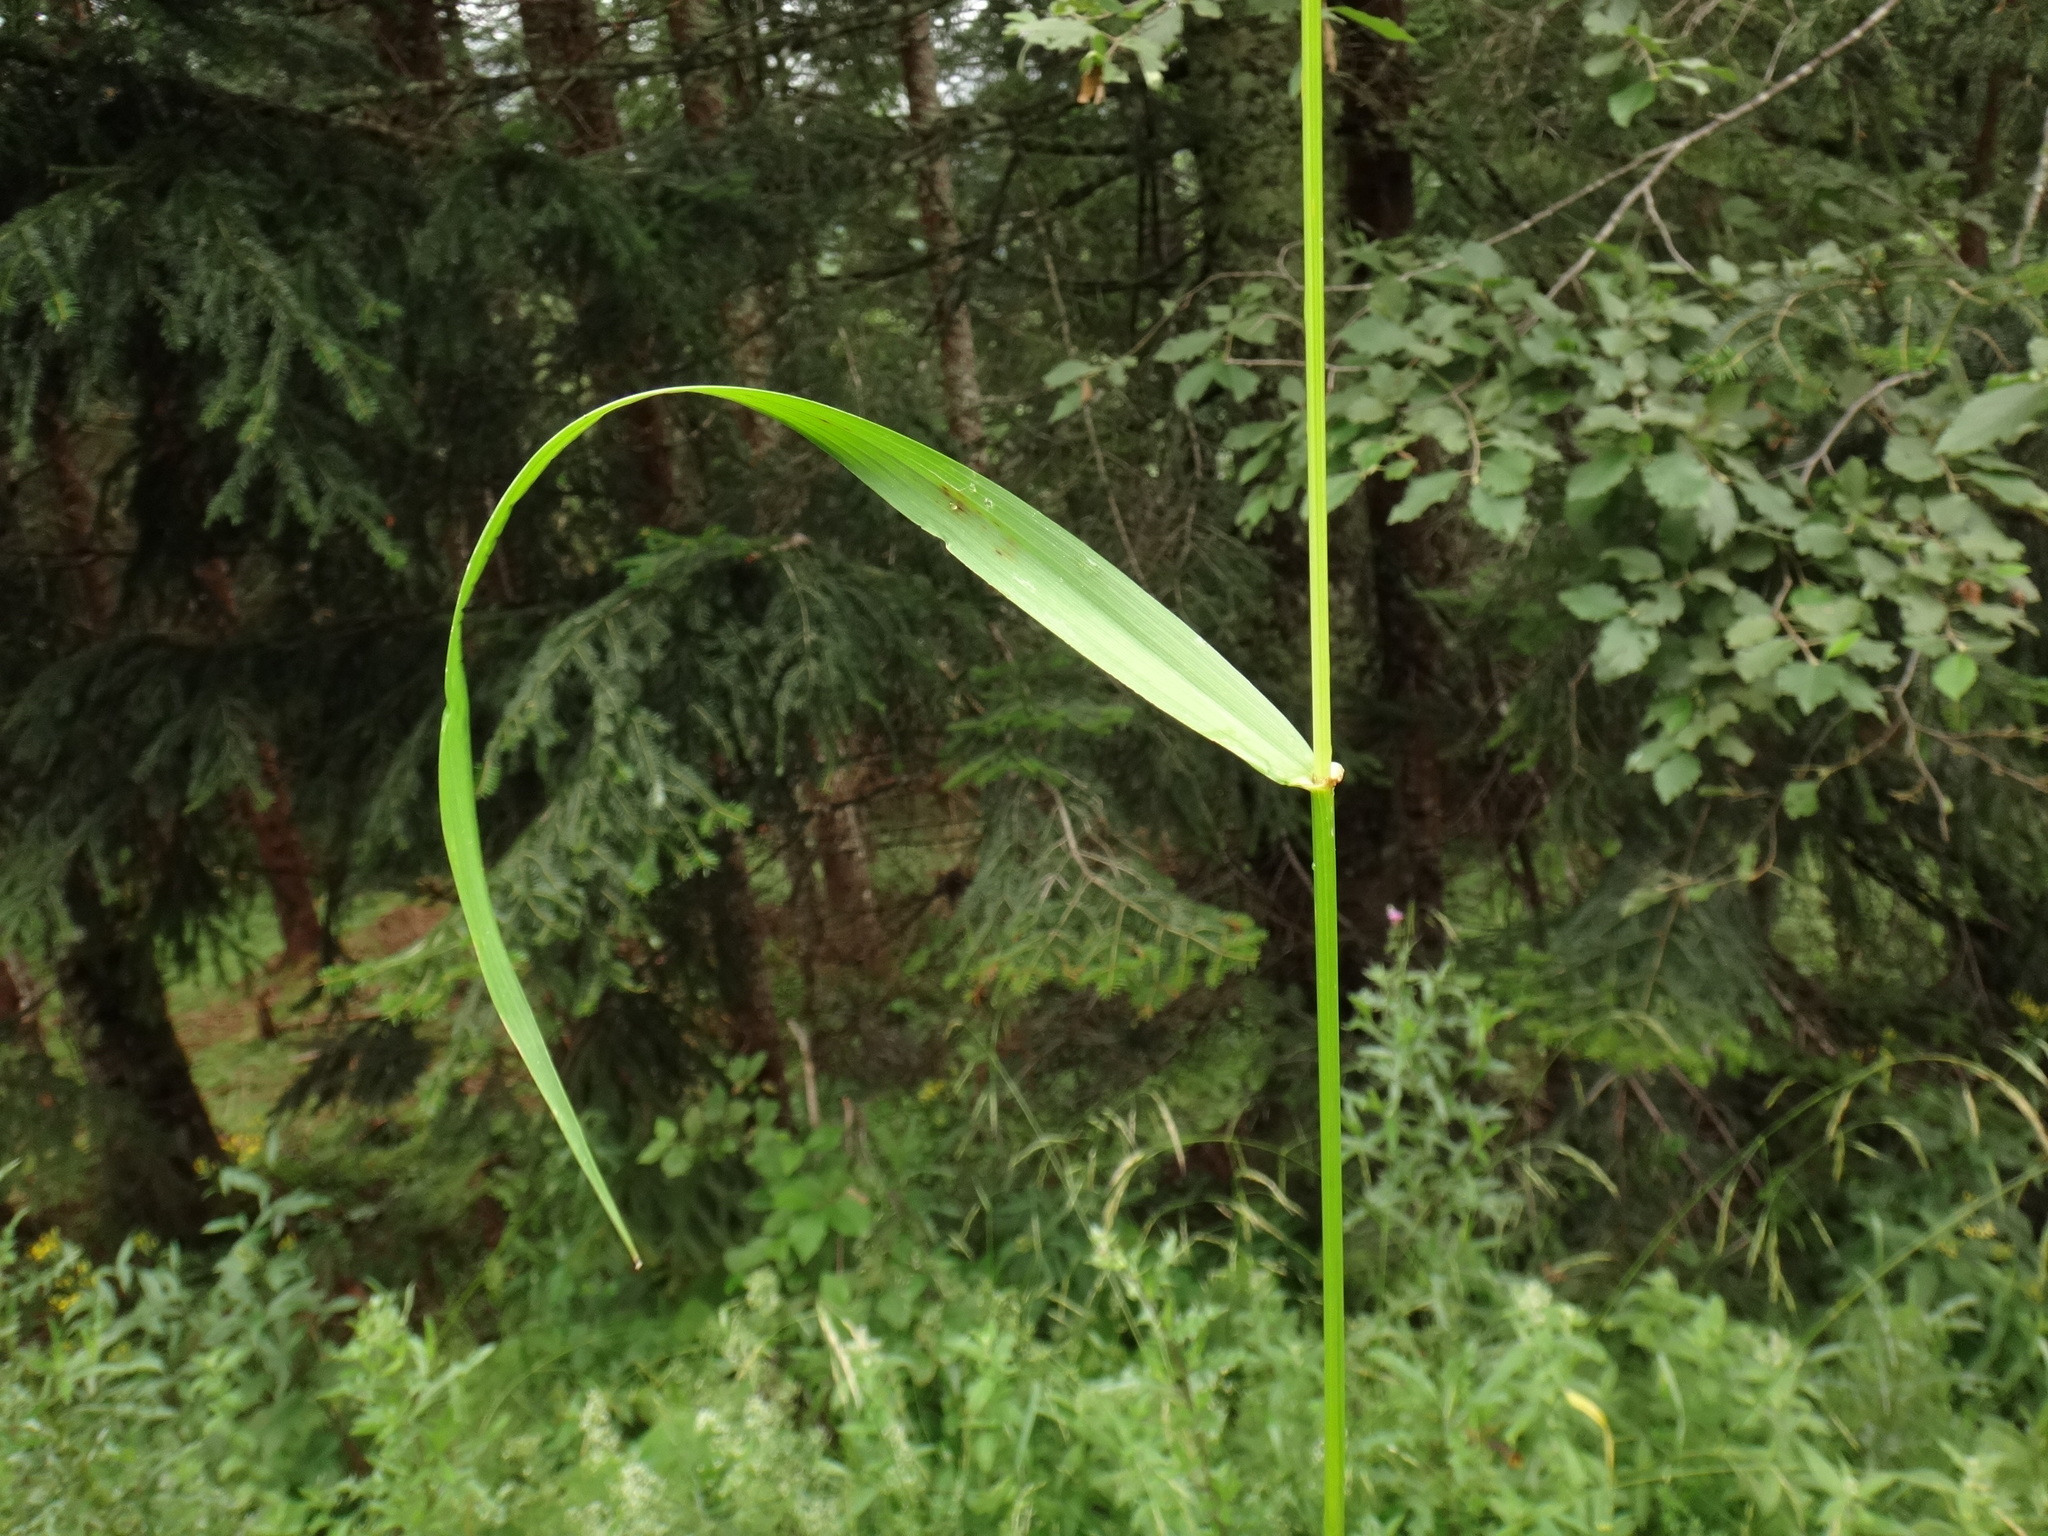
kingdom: Plantae
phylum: Tracheophyta
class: Liliopsida
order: Poales
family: Poaceae
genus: Lolium
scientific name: Lolium giganteum
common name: Giant fescue
